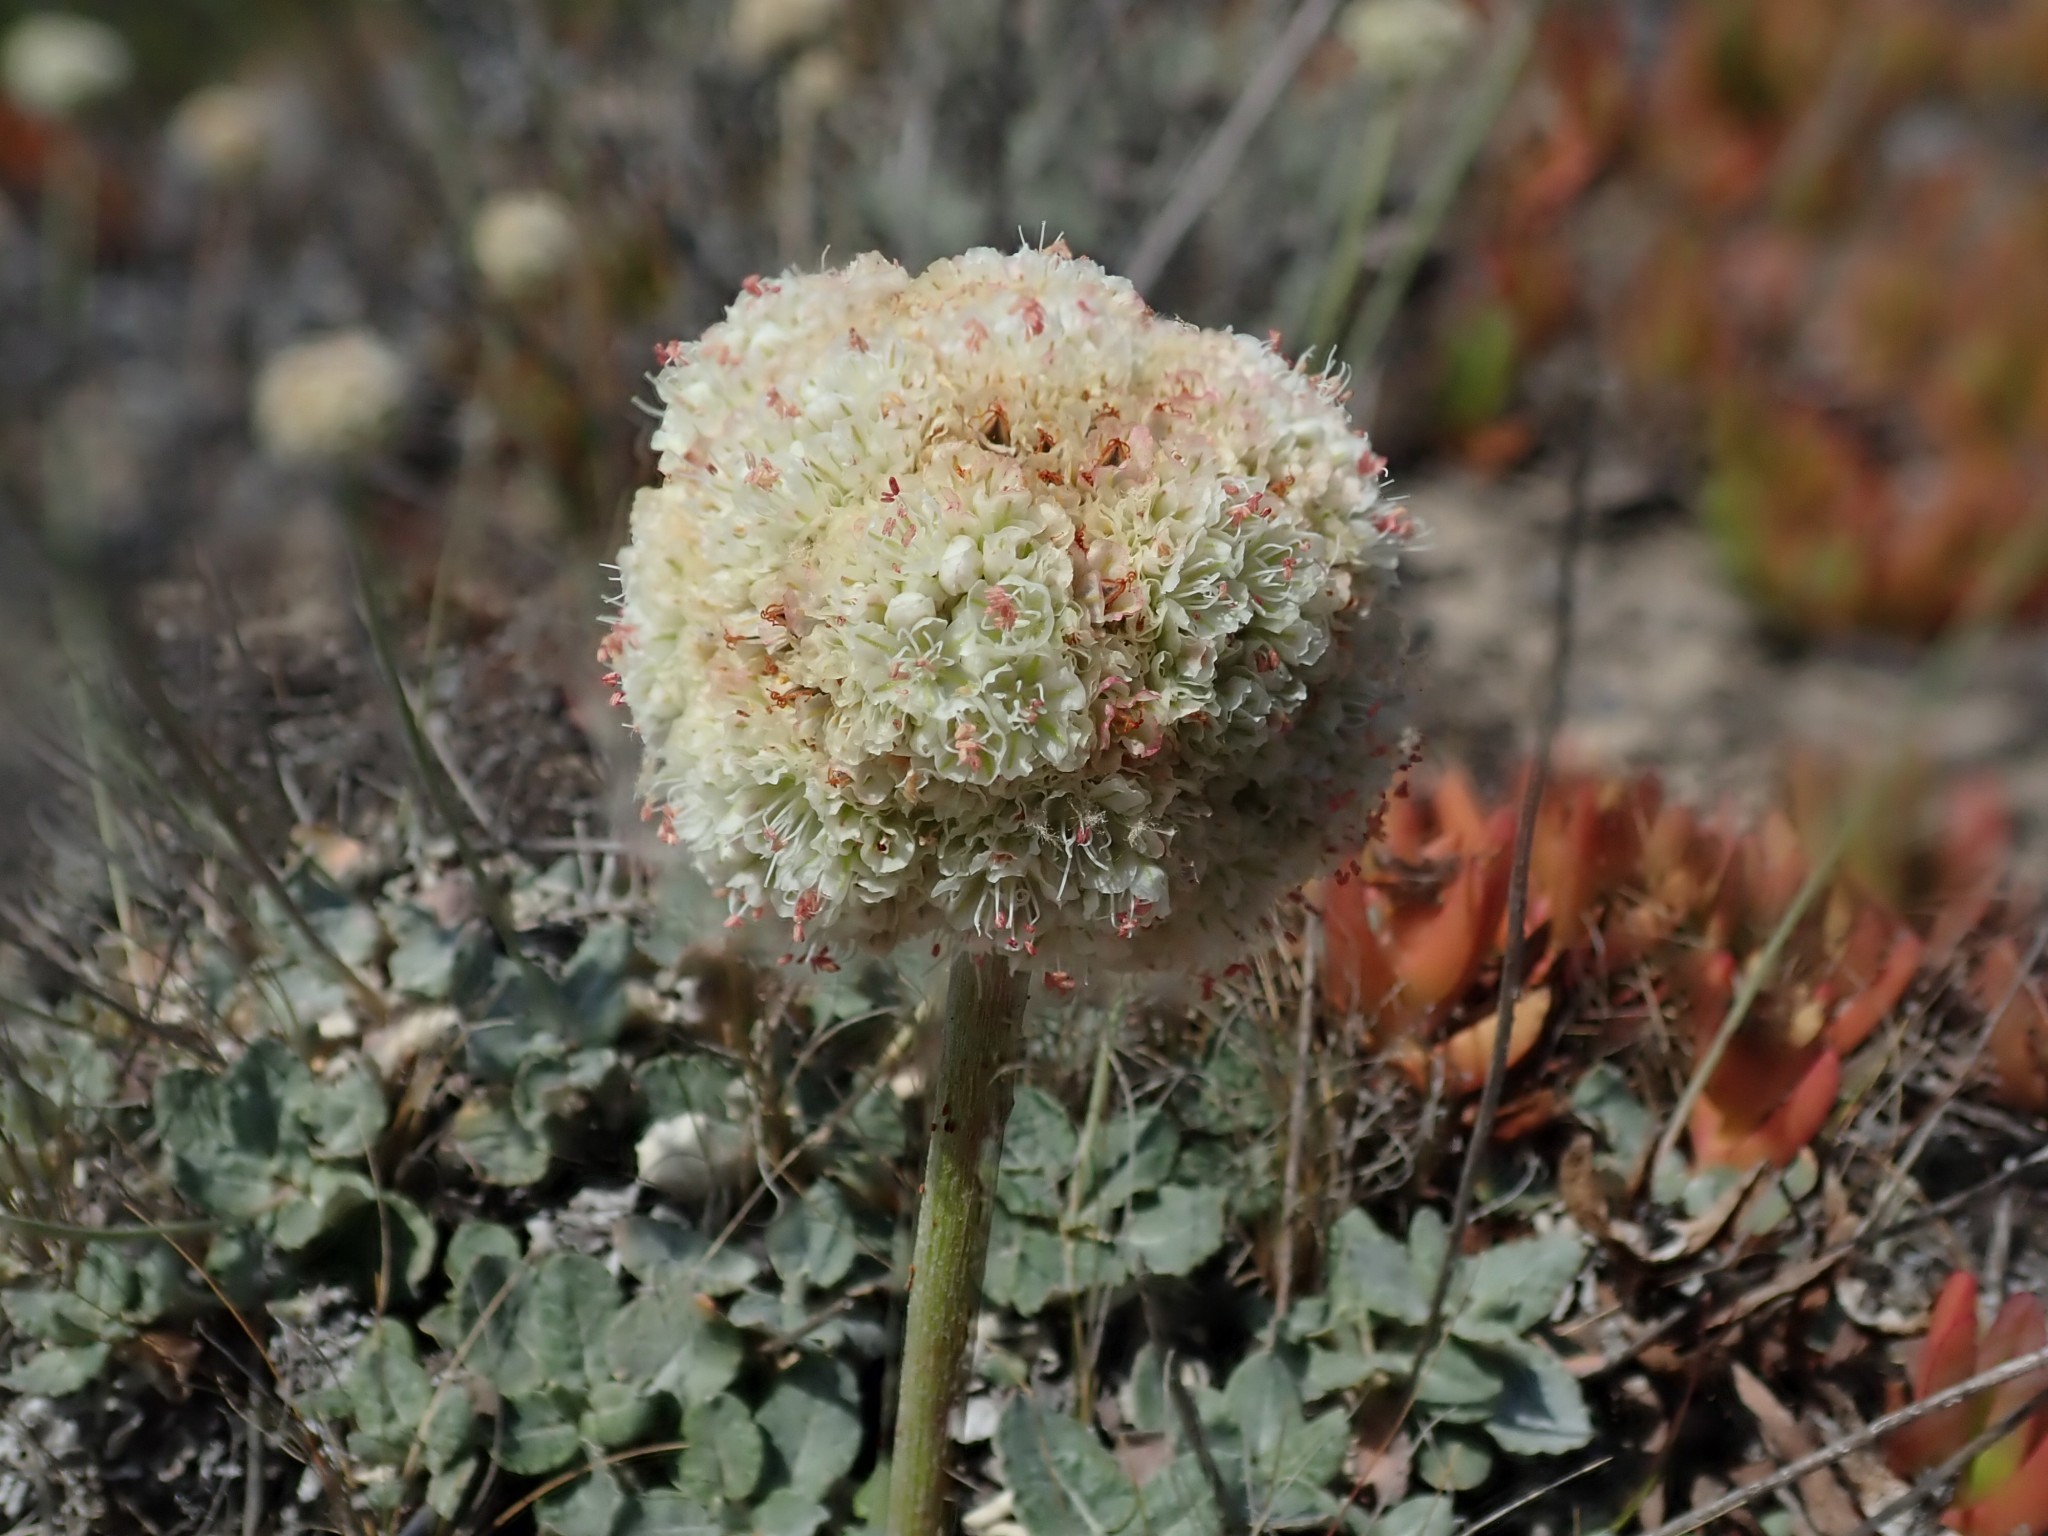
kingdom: Plantae
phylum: Tracheophyta
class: Magnoliopsida
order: Caryophyllales
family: Polygonaceae
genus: Eriogonum
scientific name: Eriogonum latifolium
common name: Seaside wild buckwheat
